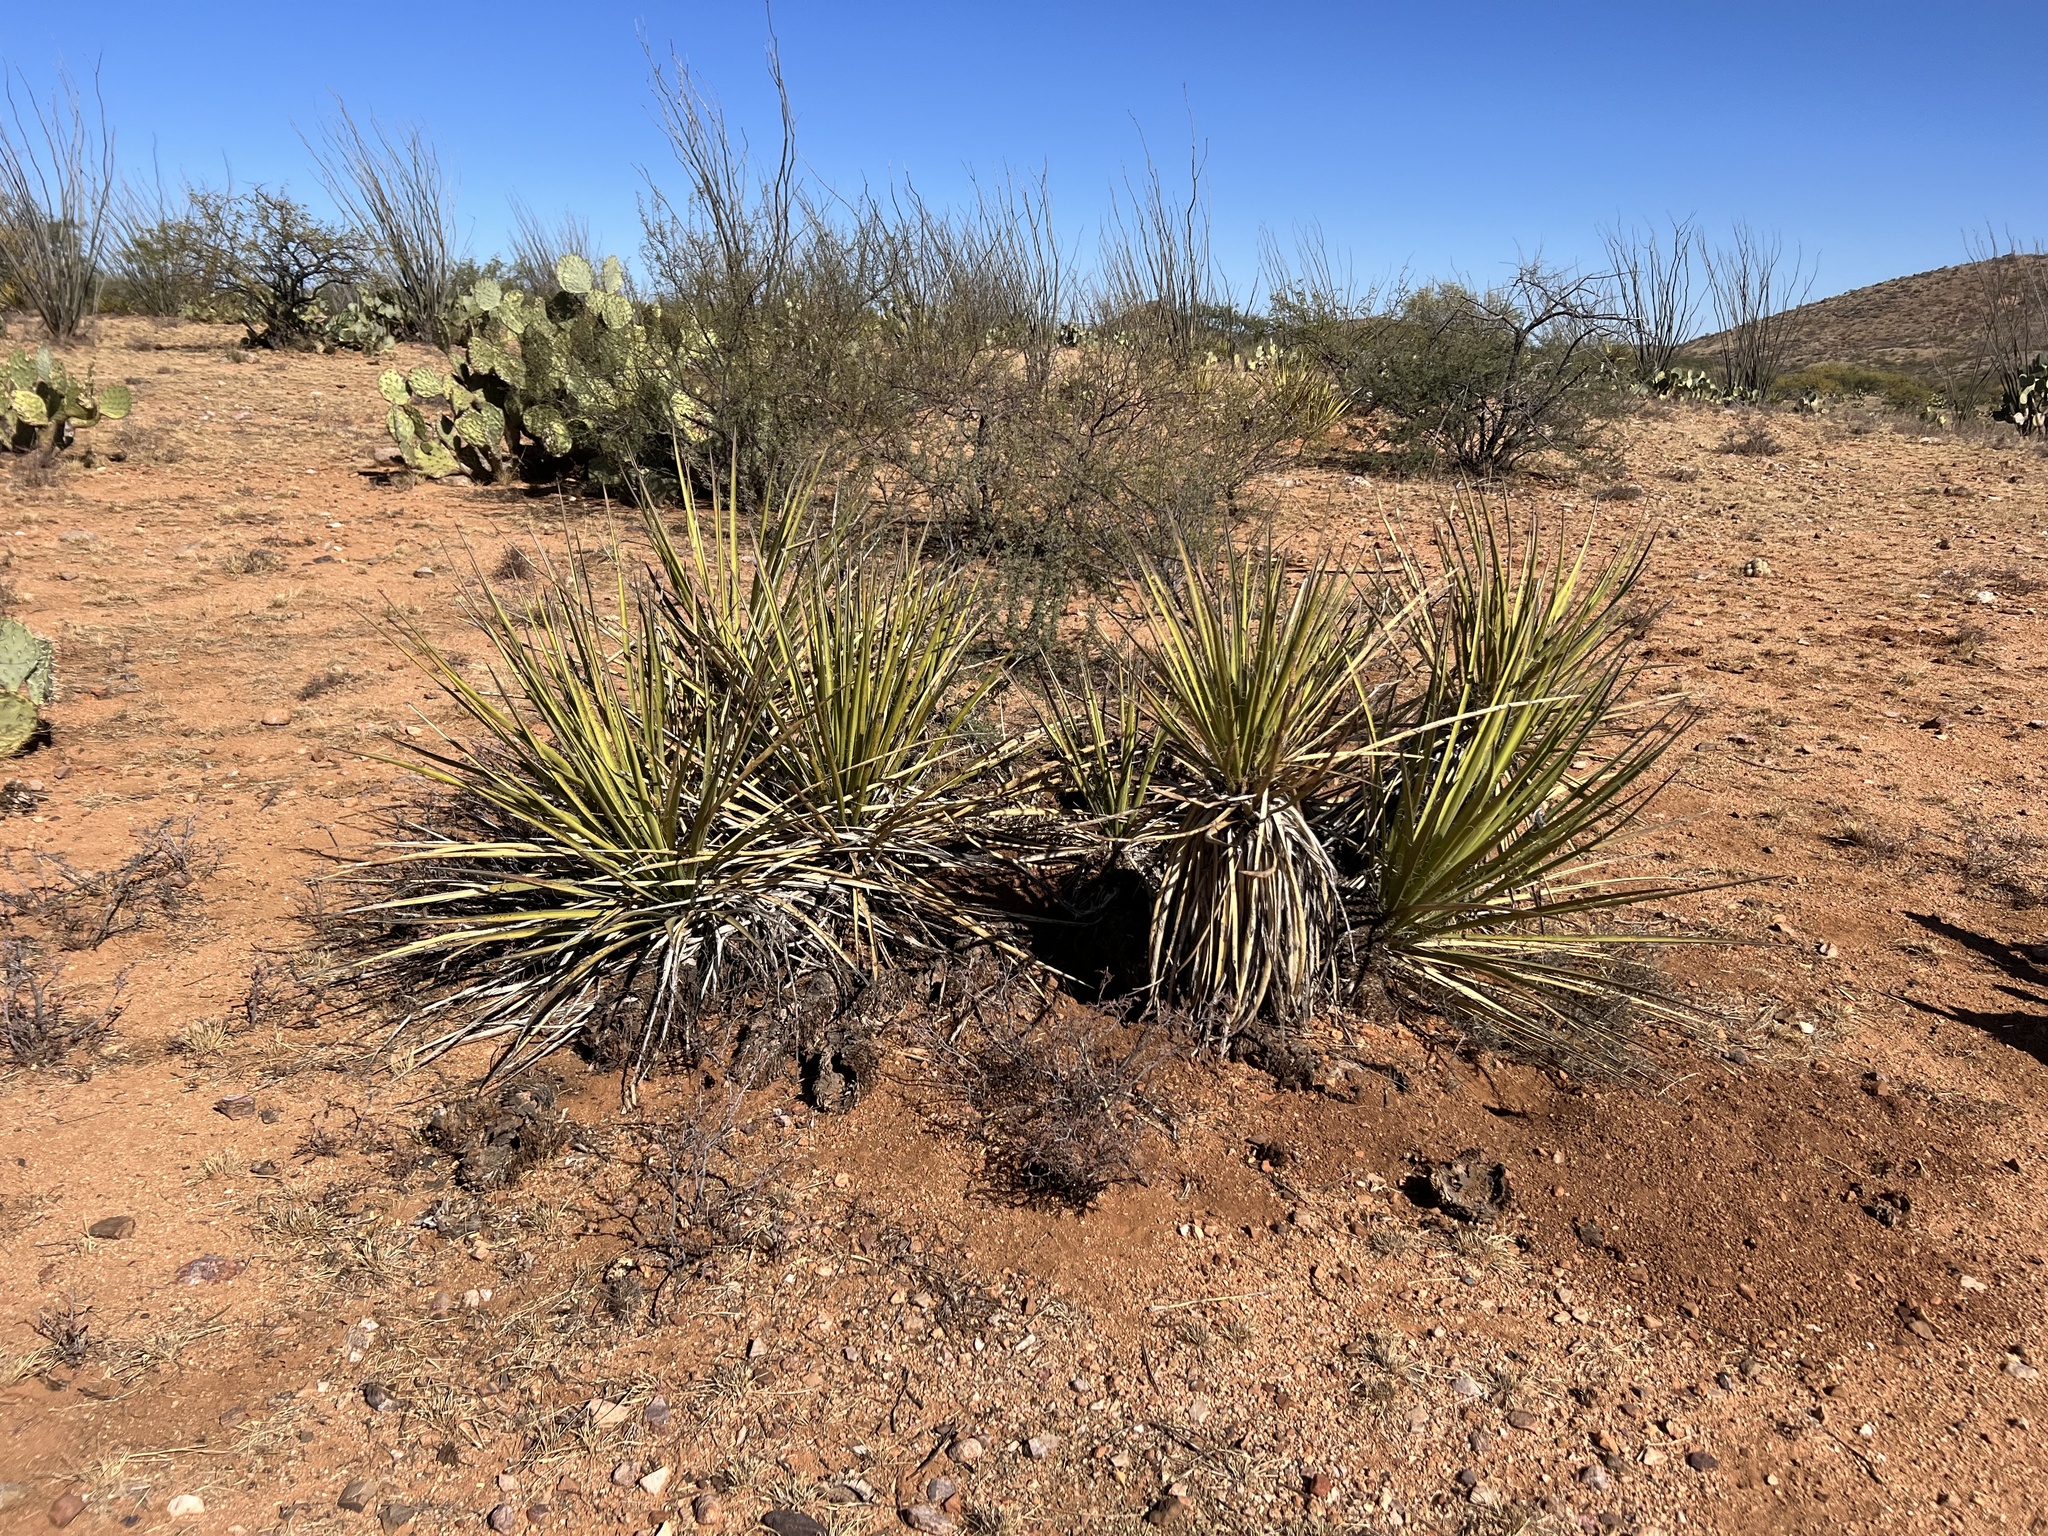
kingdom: Plantae
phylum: Tracheophyta
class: Liliopsida
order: Asparagales
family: Asparagaceae
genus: Yucca
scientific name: Yucca baccata
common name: Banana yucca
